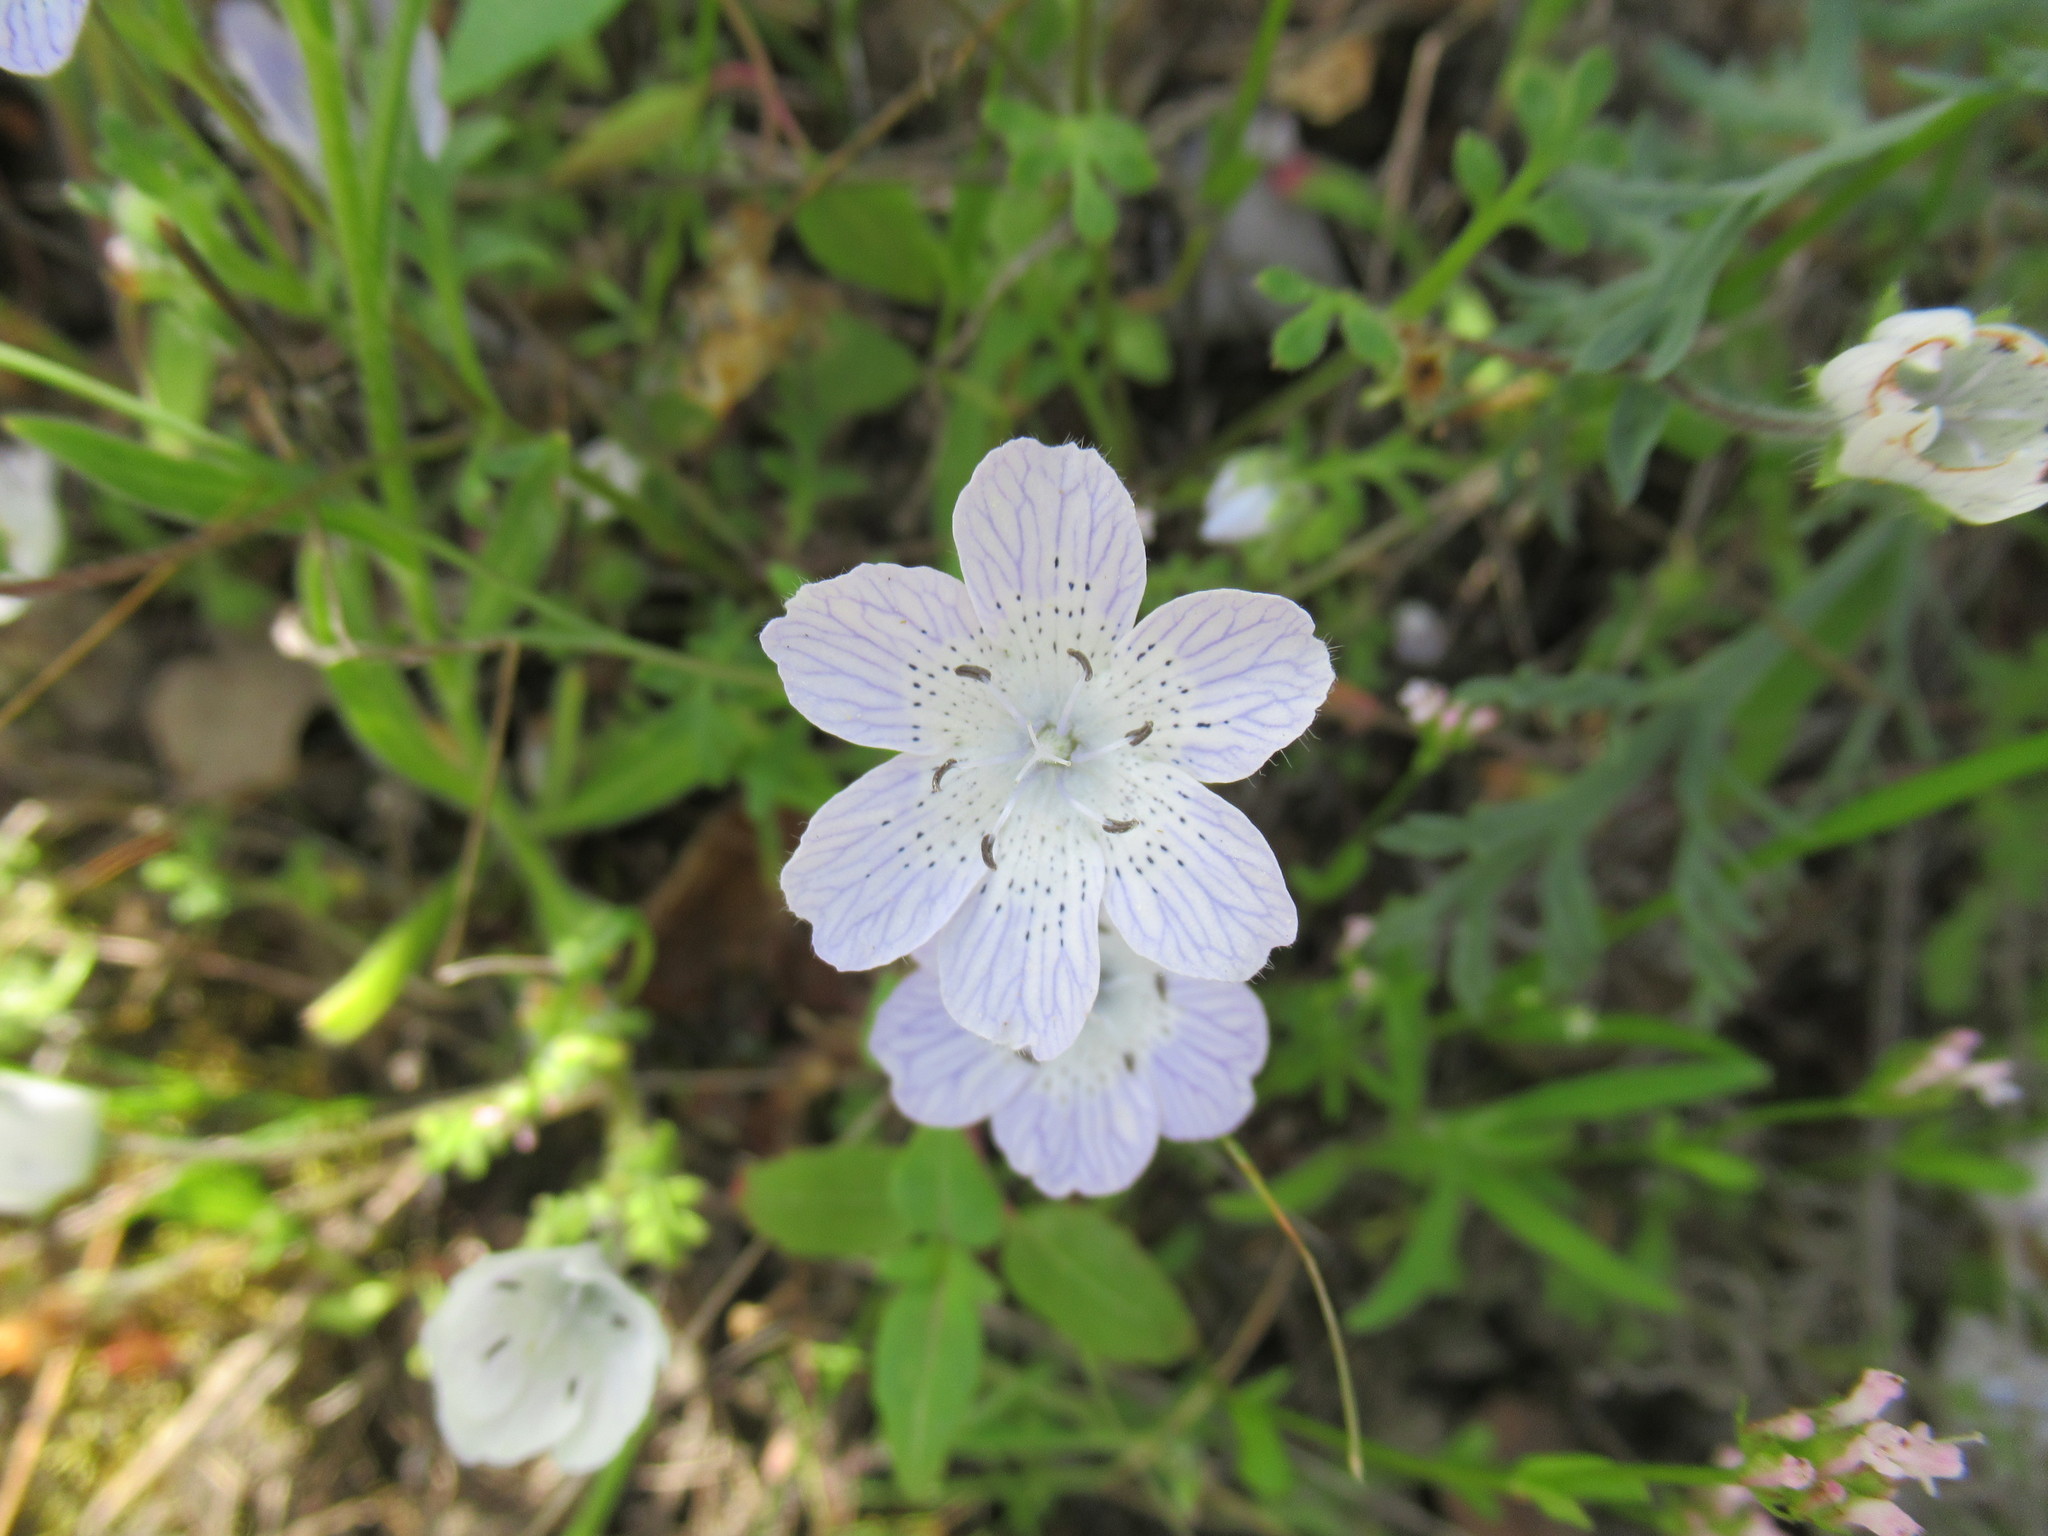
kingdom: Plantae
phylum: Tracheophyta
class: Magnoliopsida
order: Boraginales
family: Hydrophyllaceae
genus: Nemophila
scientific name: Nemophila menziesii
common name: Baby's-blue-eyes
